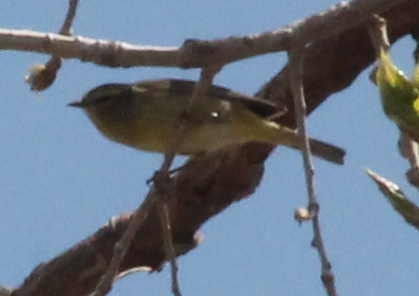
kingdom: Animalia
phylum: Chordata
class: Aves
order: Passeriformes
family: Parulidae
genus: Leiothlypis
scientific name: Leiothlypis celata
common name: Orange-crowned warbler
